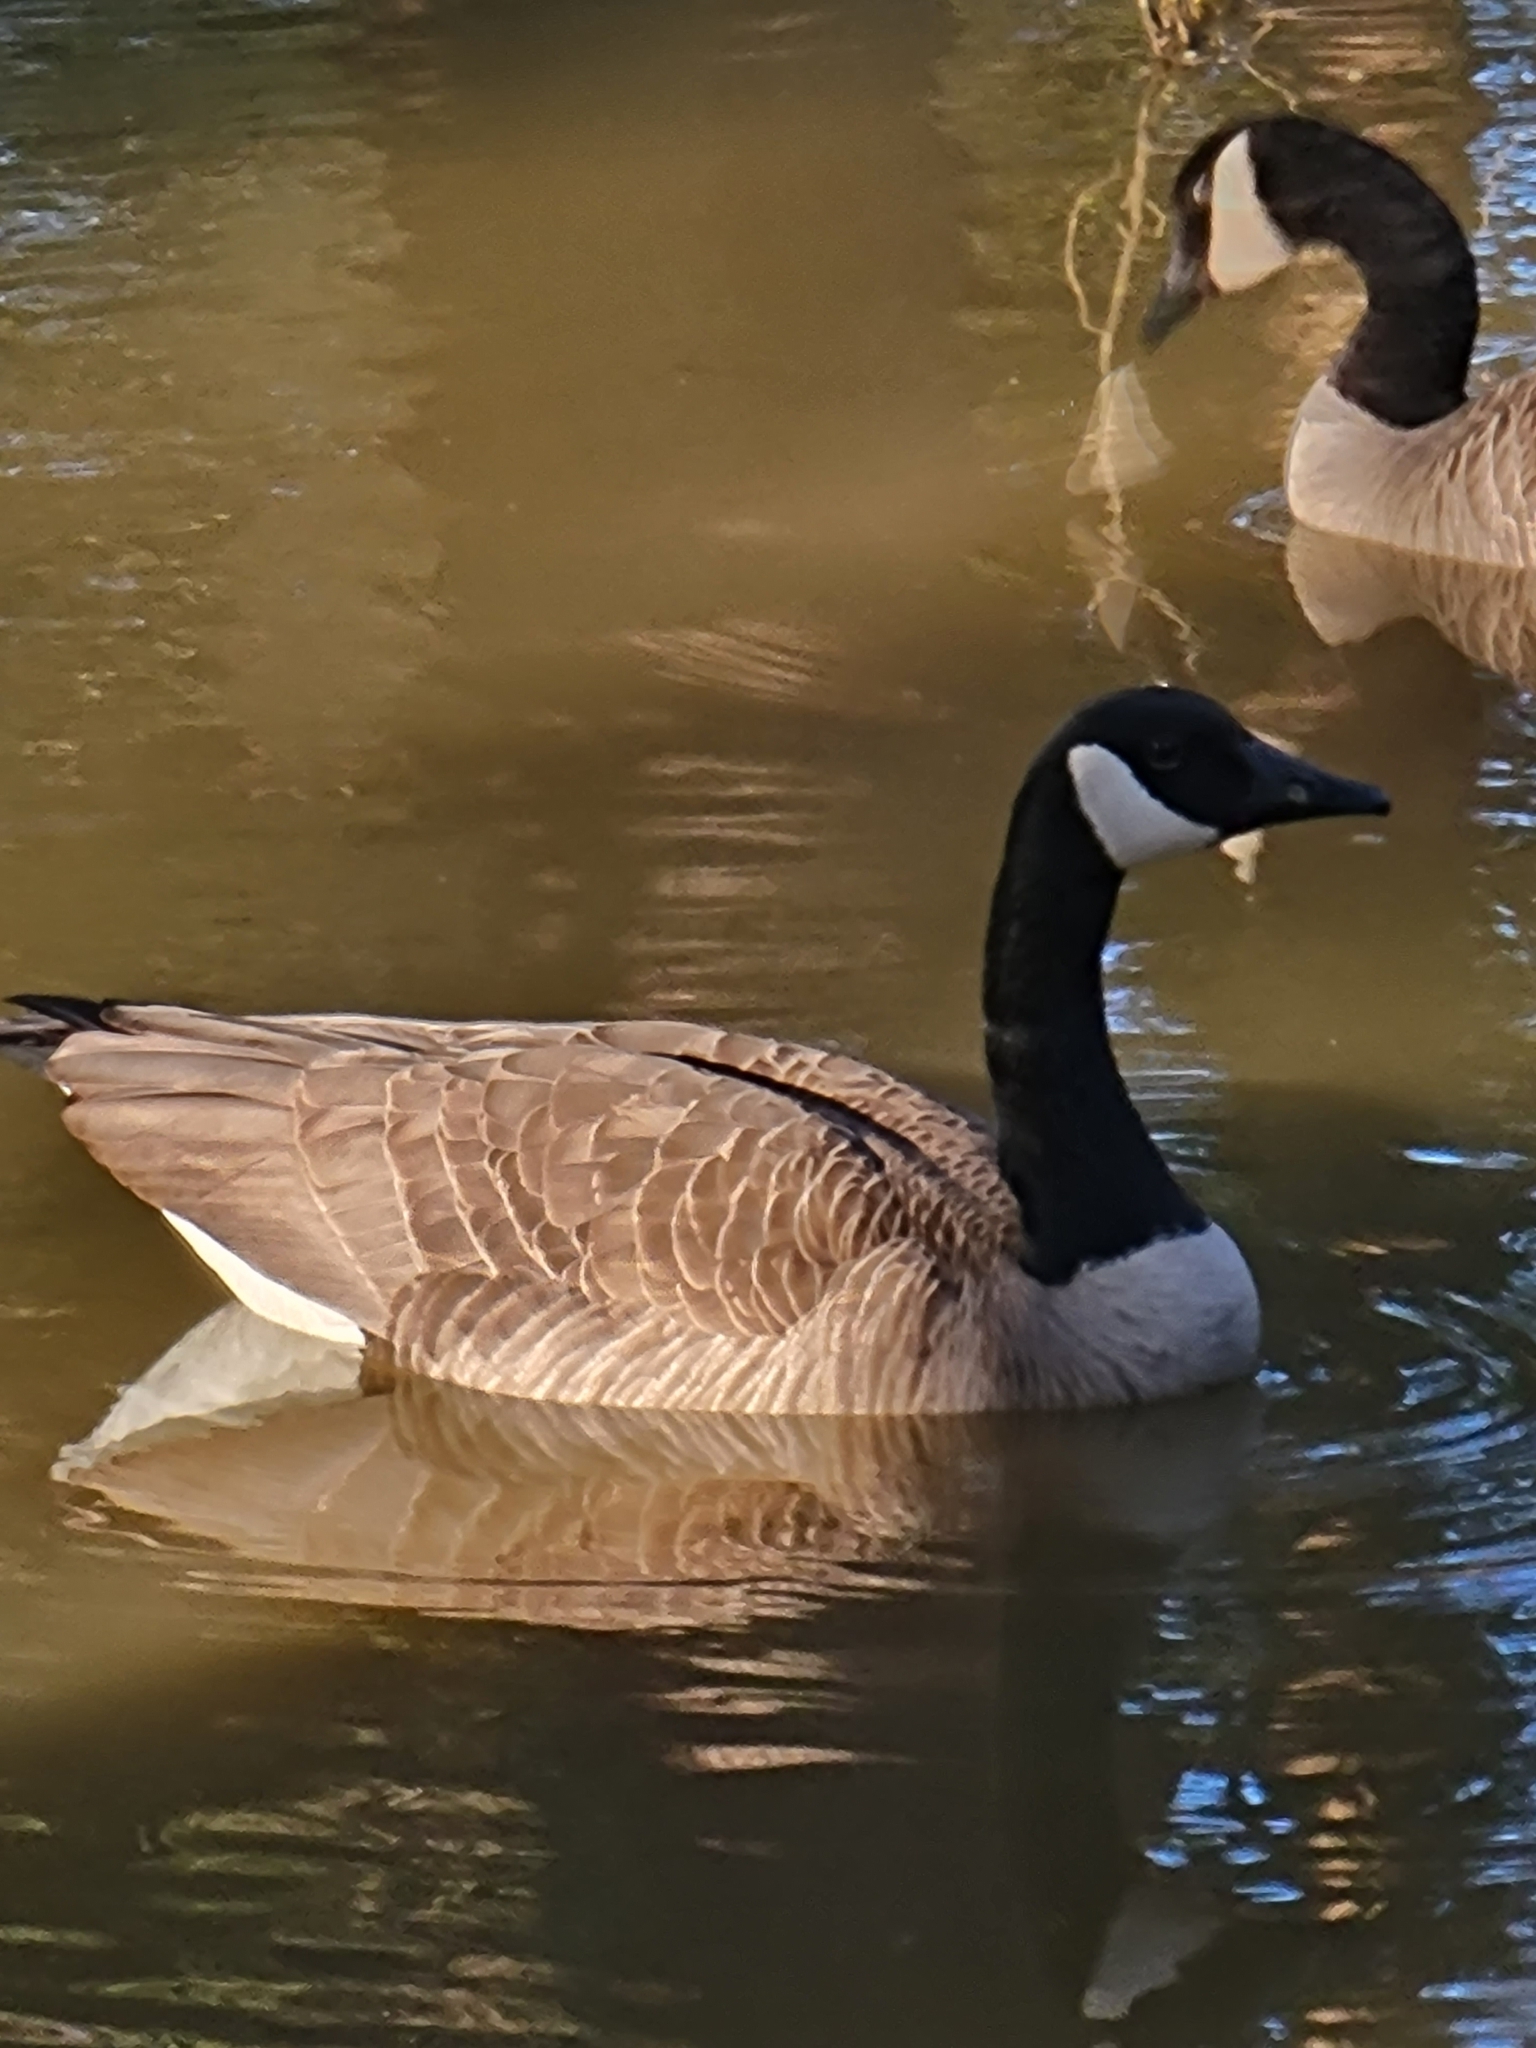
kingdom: Animalia
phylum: Chordata
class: Aves
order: Anseriformes
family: Anatidae
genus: Branta
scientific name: Branta canadensis
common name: Canada goose
